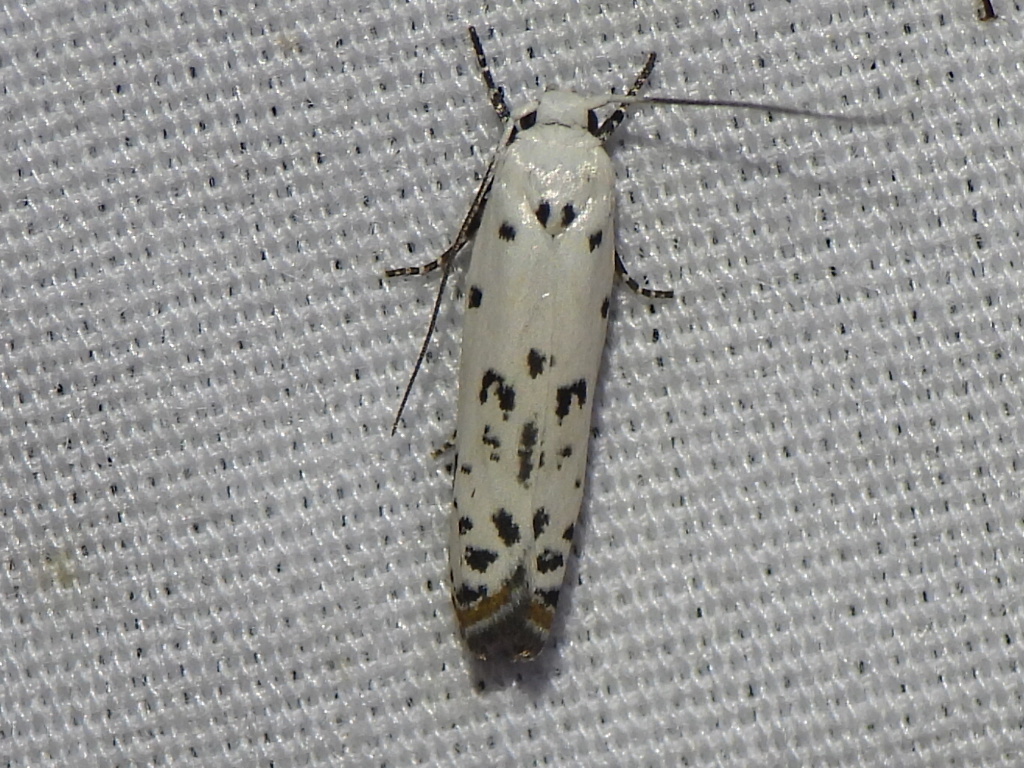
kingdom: Animalia
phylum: Arthropoda
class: Insecta
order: Lepidoptera
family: Ethmiidae
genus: Ethmia
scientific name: Ethmia bittenella
